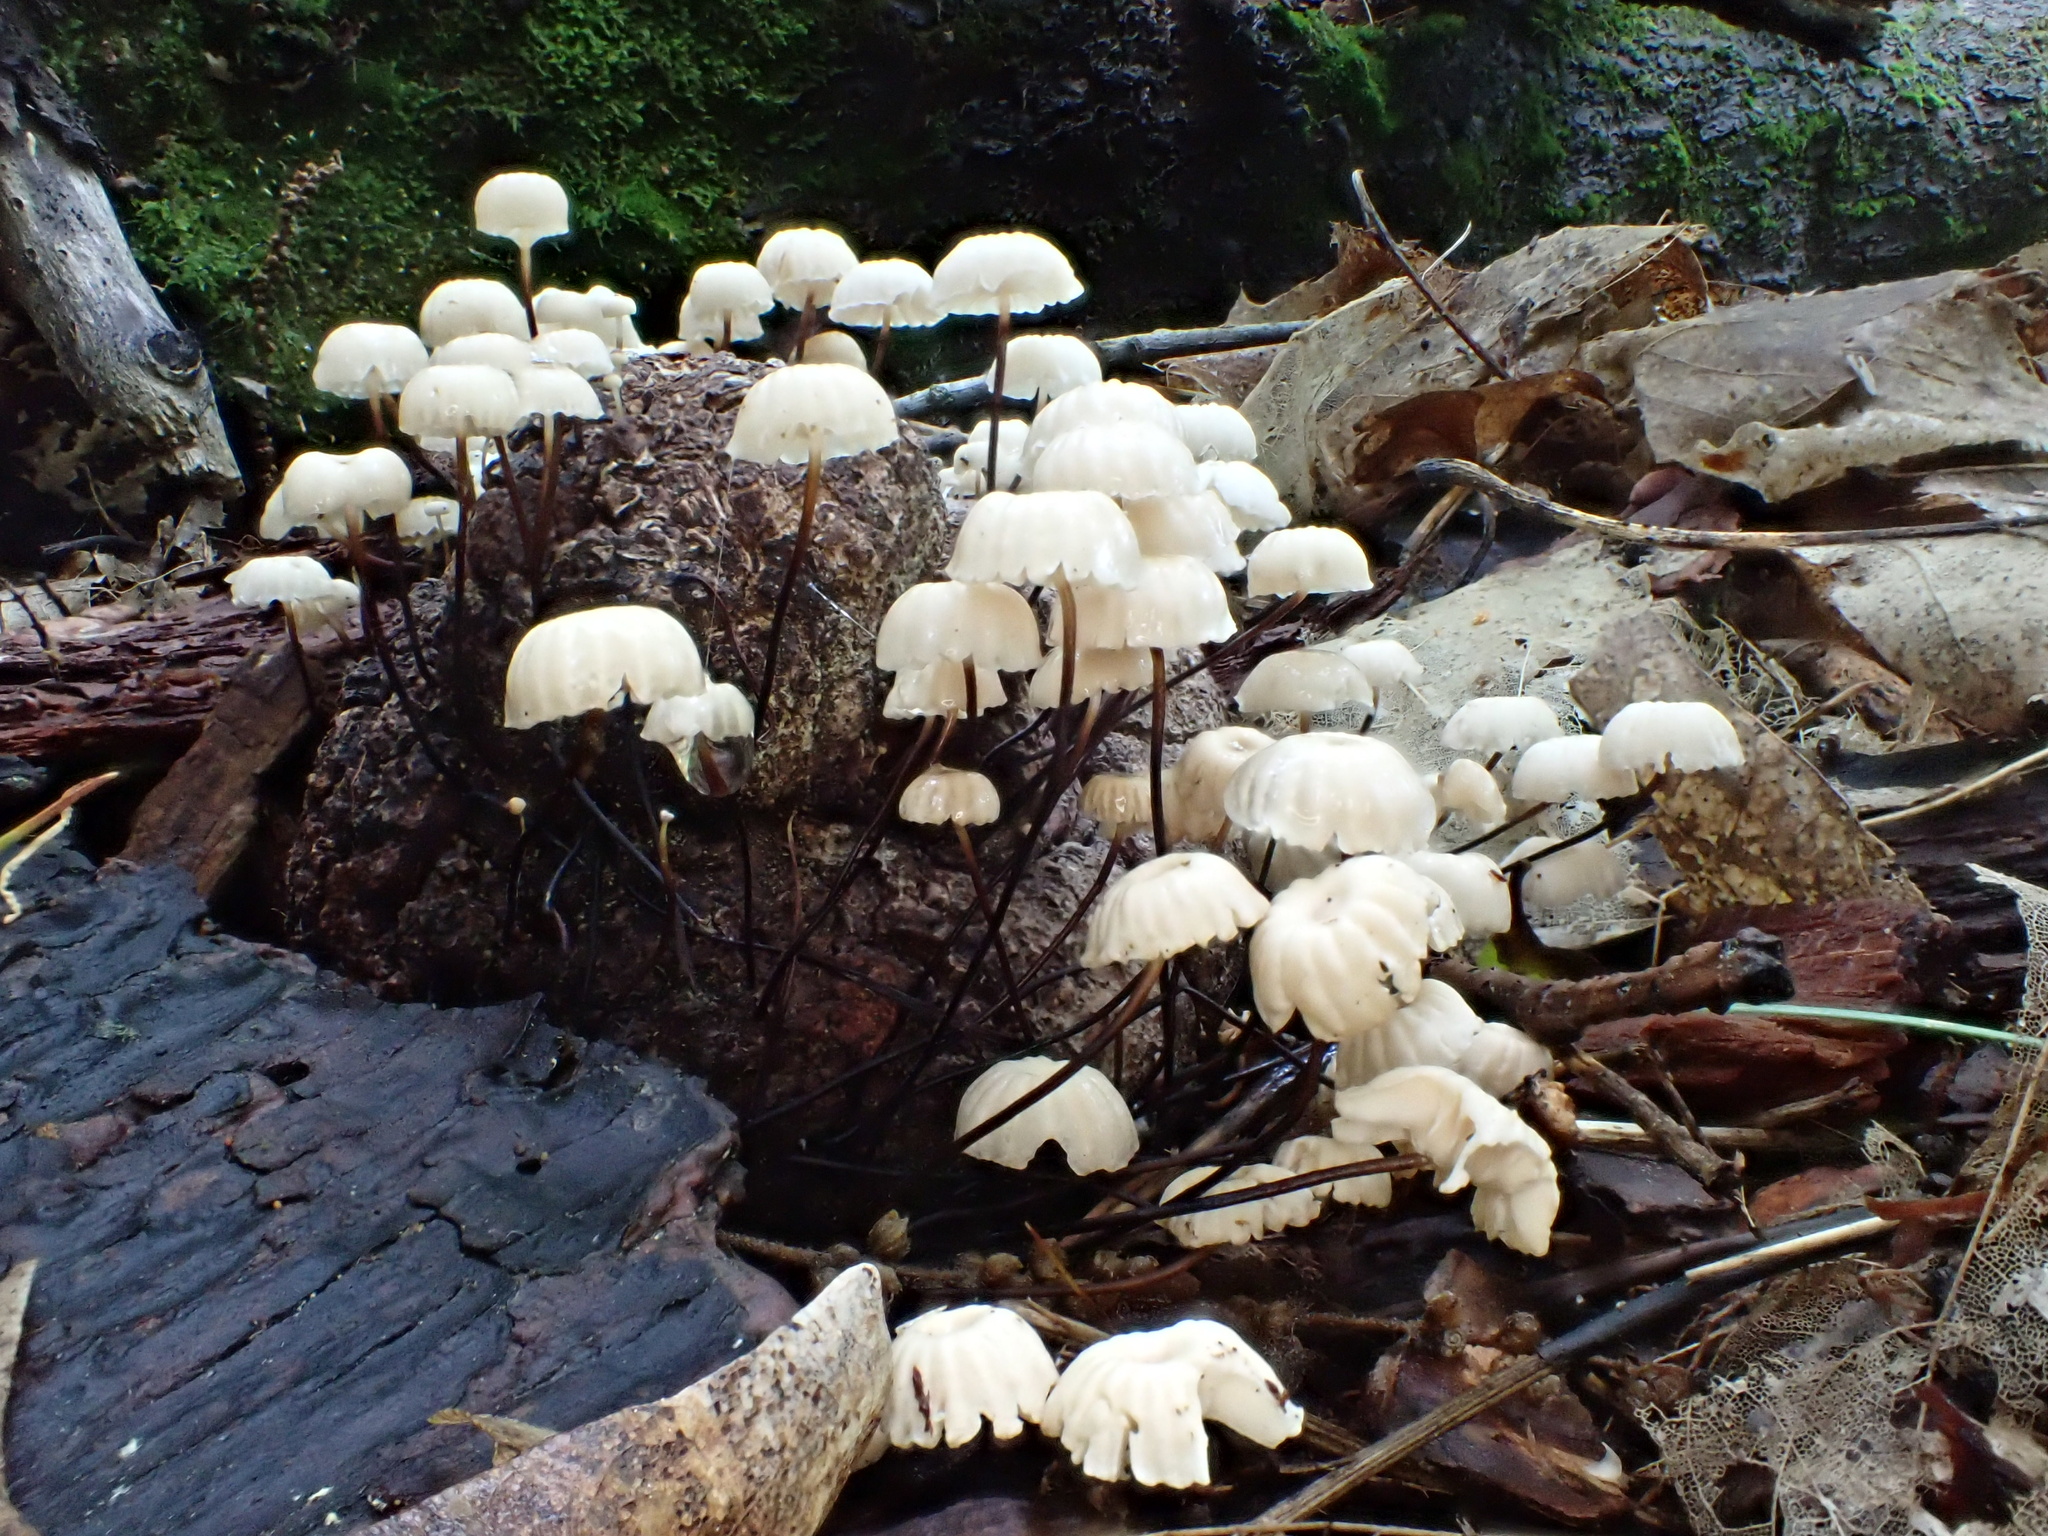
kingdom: Fungi
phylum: Basidiomycota
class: Agaricomycetes
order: Agaricales
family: Marasmiaceae
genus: Marasmius
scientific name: Marasmius rotula
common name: Collared parachute
